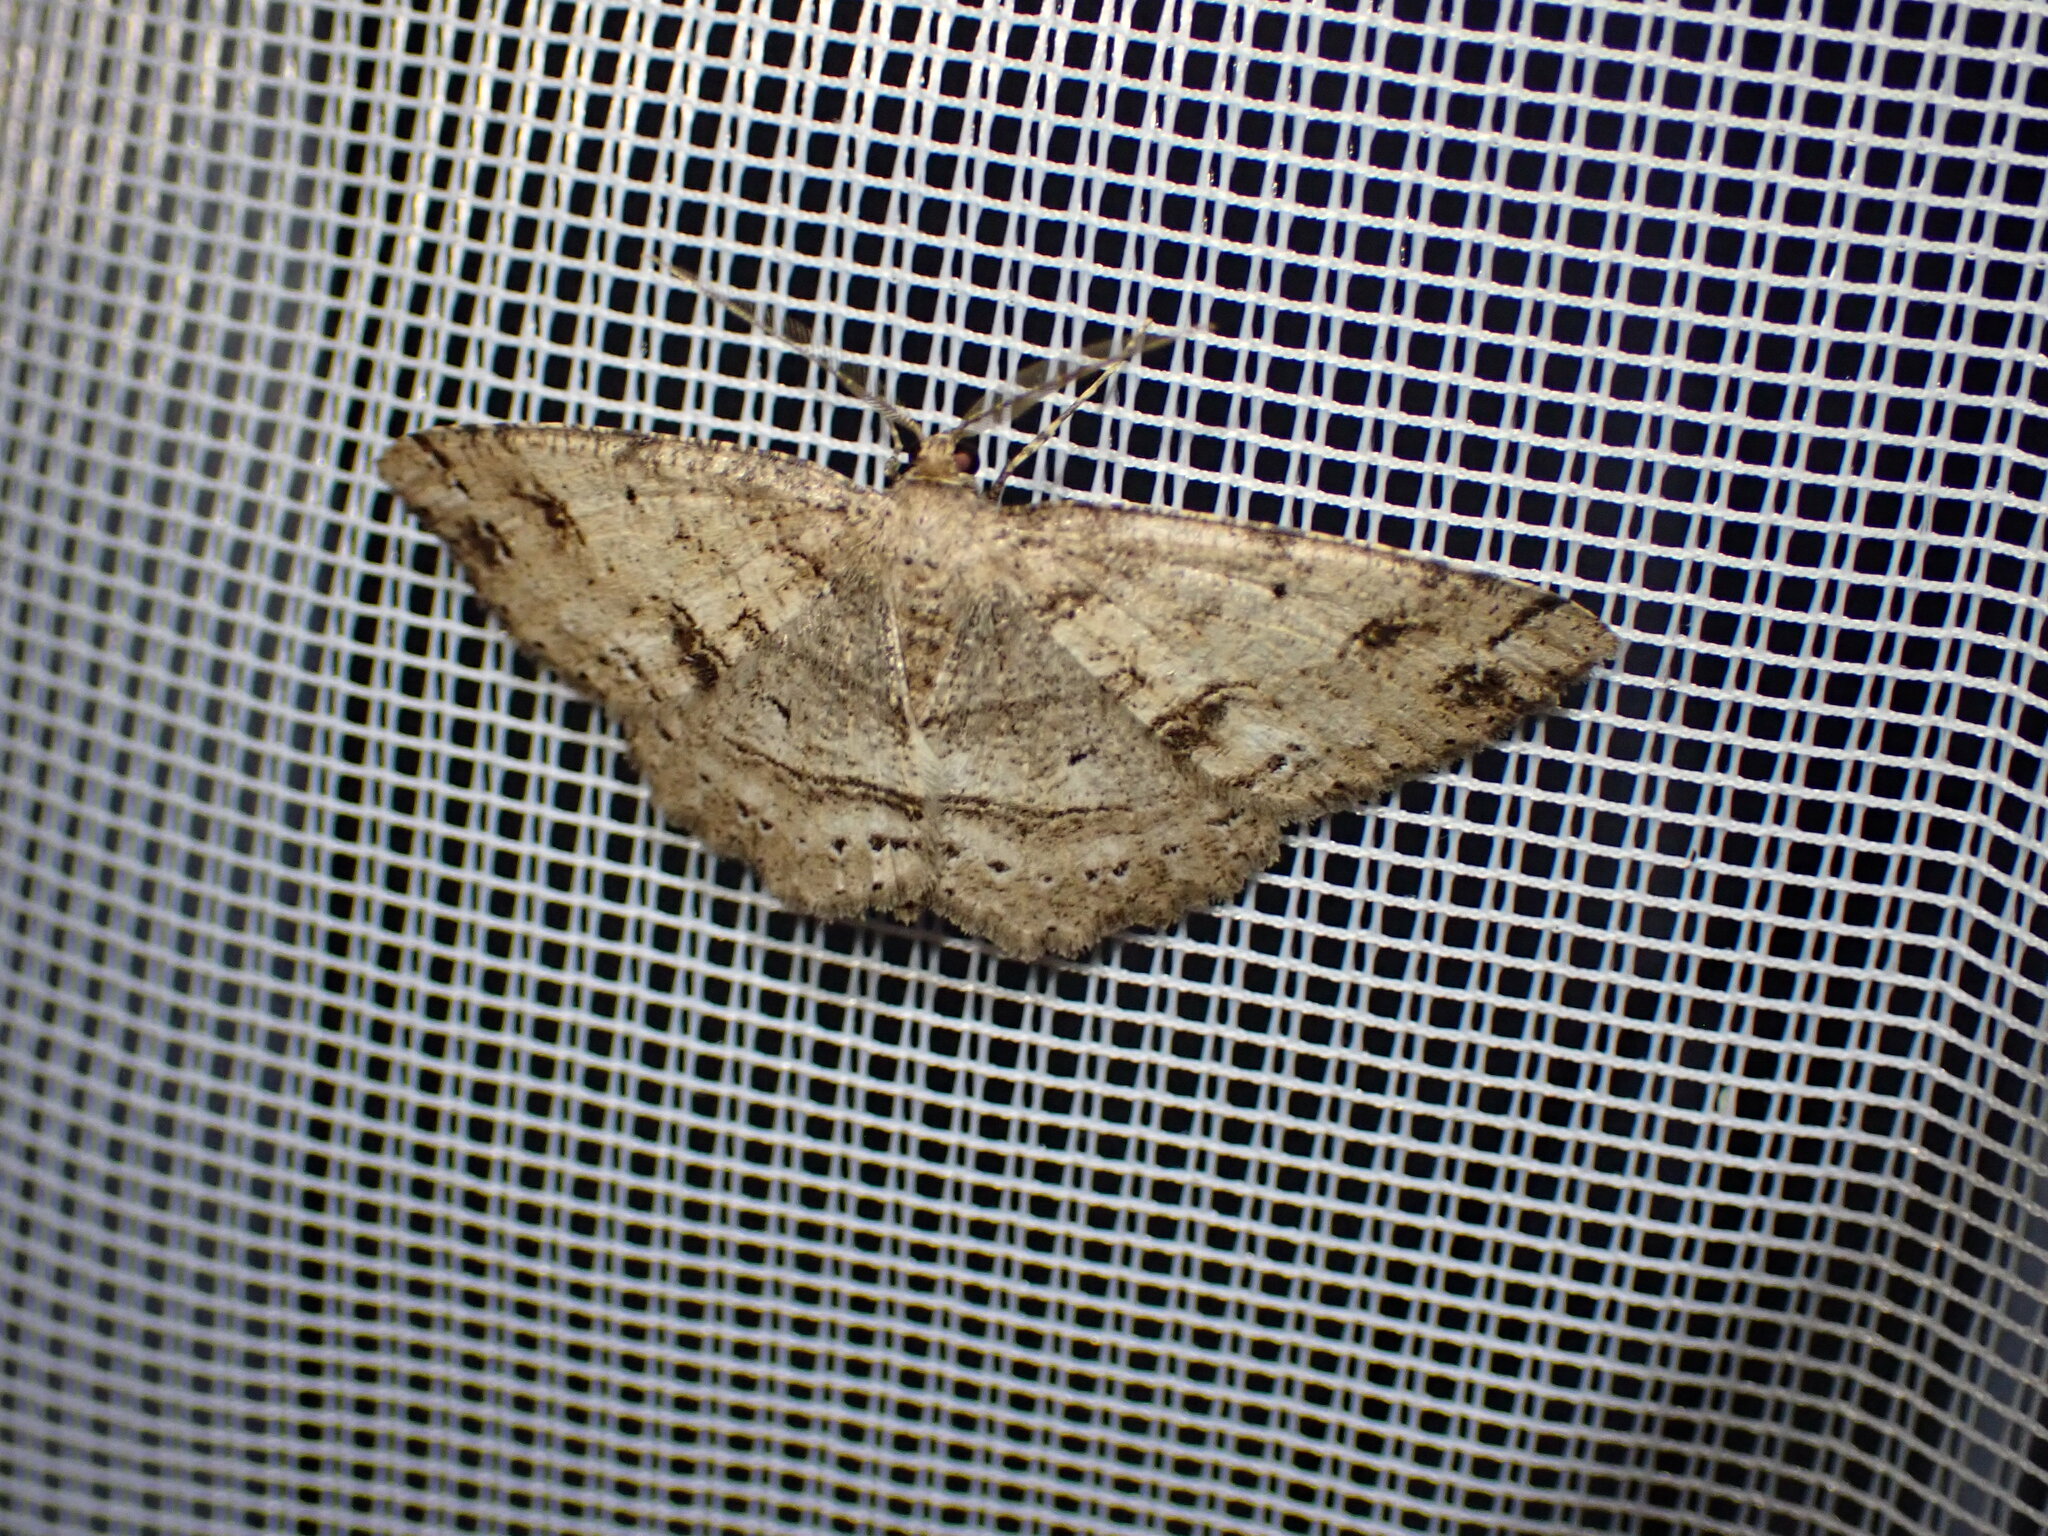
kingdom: Animalia
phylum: Arthropoda
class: Insecta
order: Lepidoptera
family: Geometridae
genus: Melanolophia
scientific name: Melanolophia signataria
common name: Signate melanolophia
